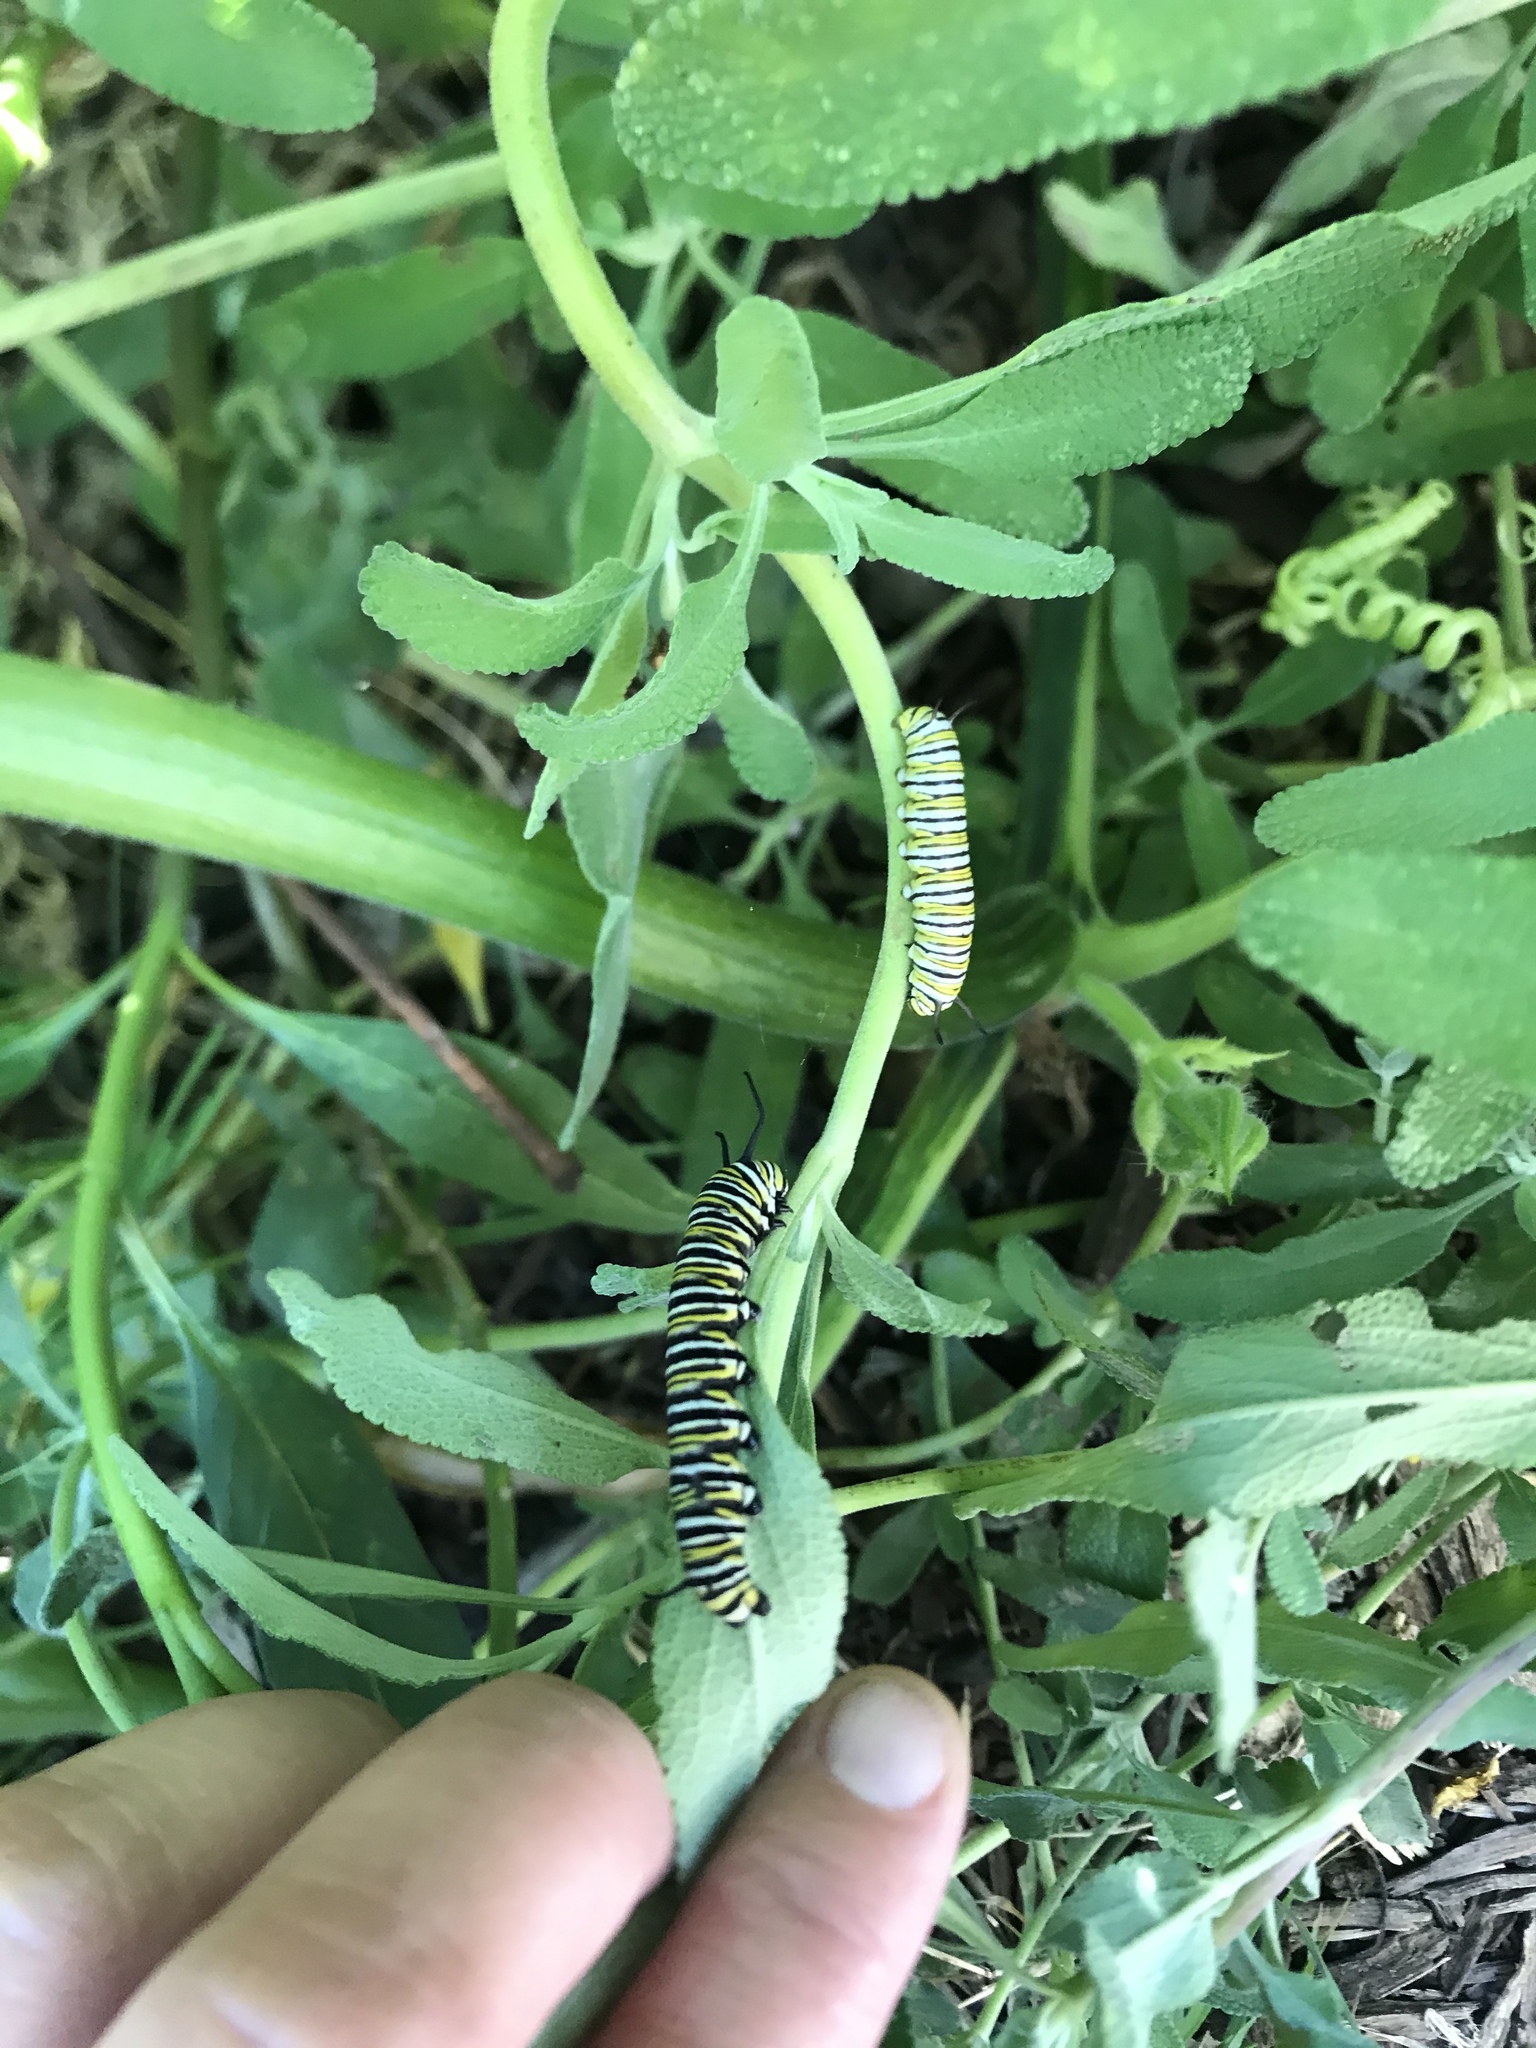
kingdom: Animalia
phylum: Arthropoda
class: Insecta
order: Lepidoptera
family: Nymphalidae
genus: Danaus
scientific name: Danaus plexippus
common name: Monarch
